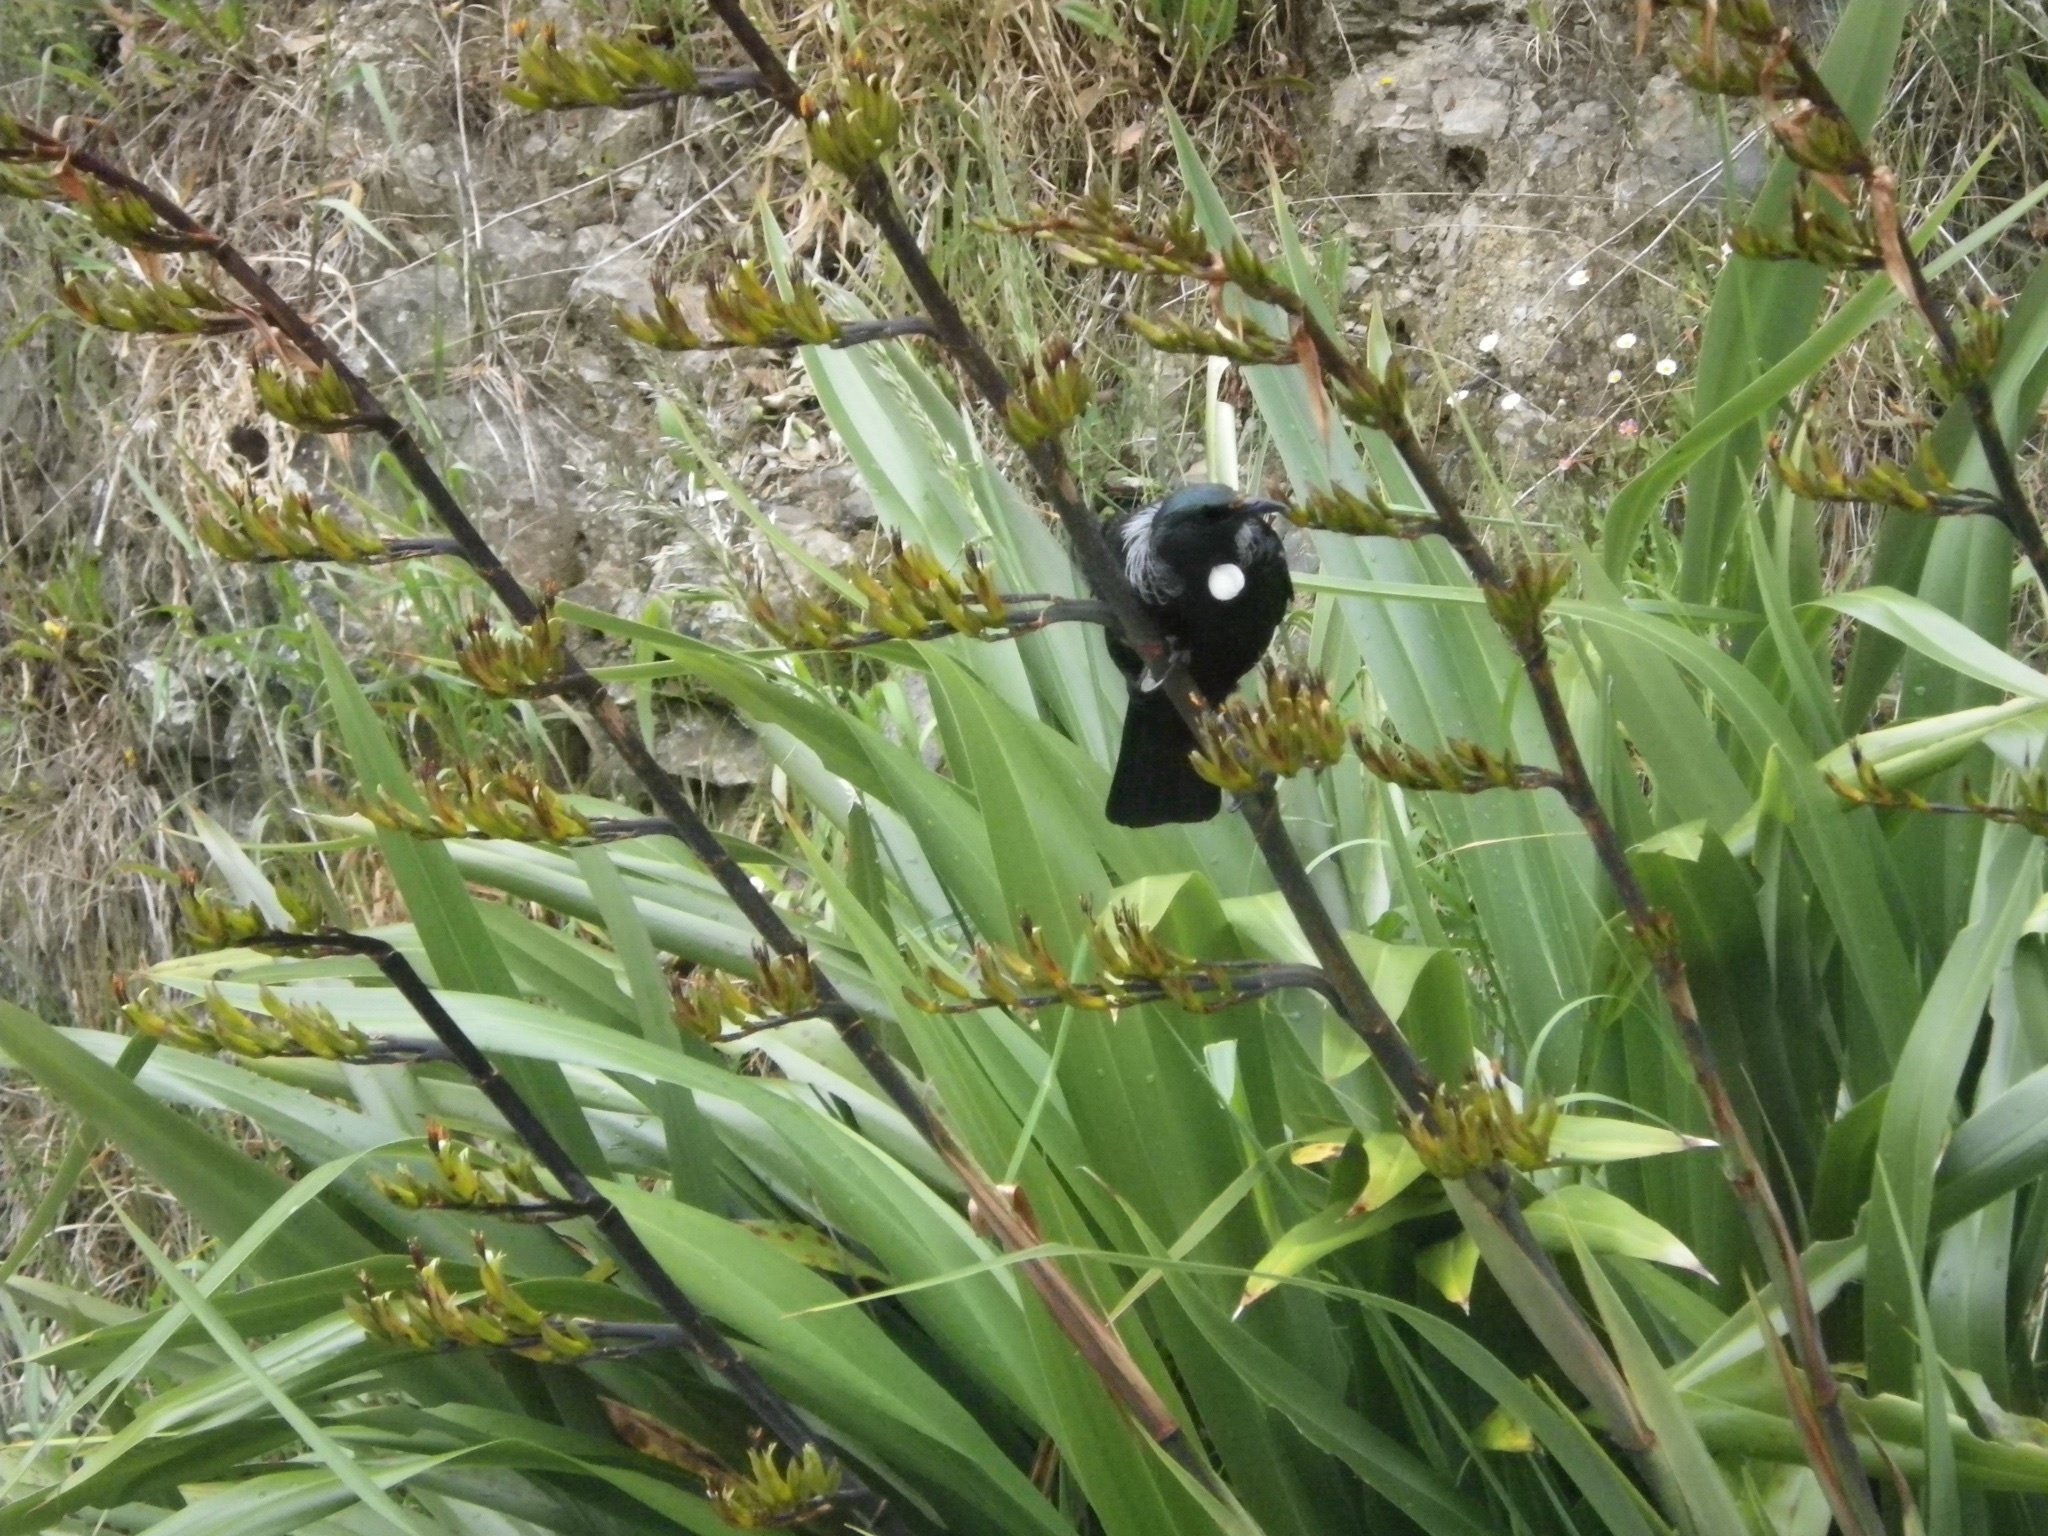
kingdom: Animalia
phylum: Chordata
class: Aves
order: Passeriformes
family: Meliphagidae
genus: Prosthemadera
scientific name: Prosthemadera novaeseelandiae
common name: Tui
